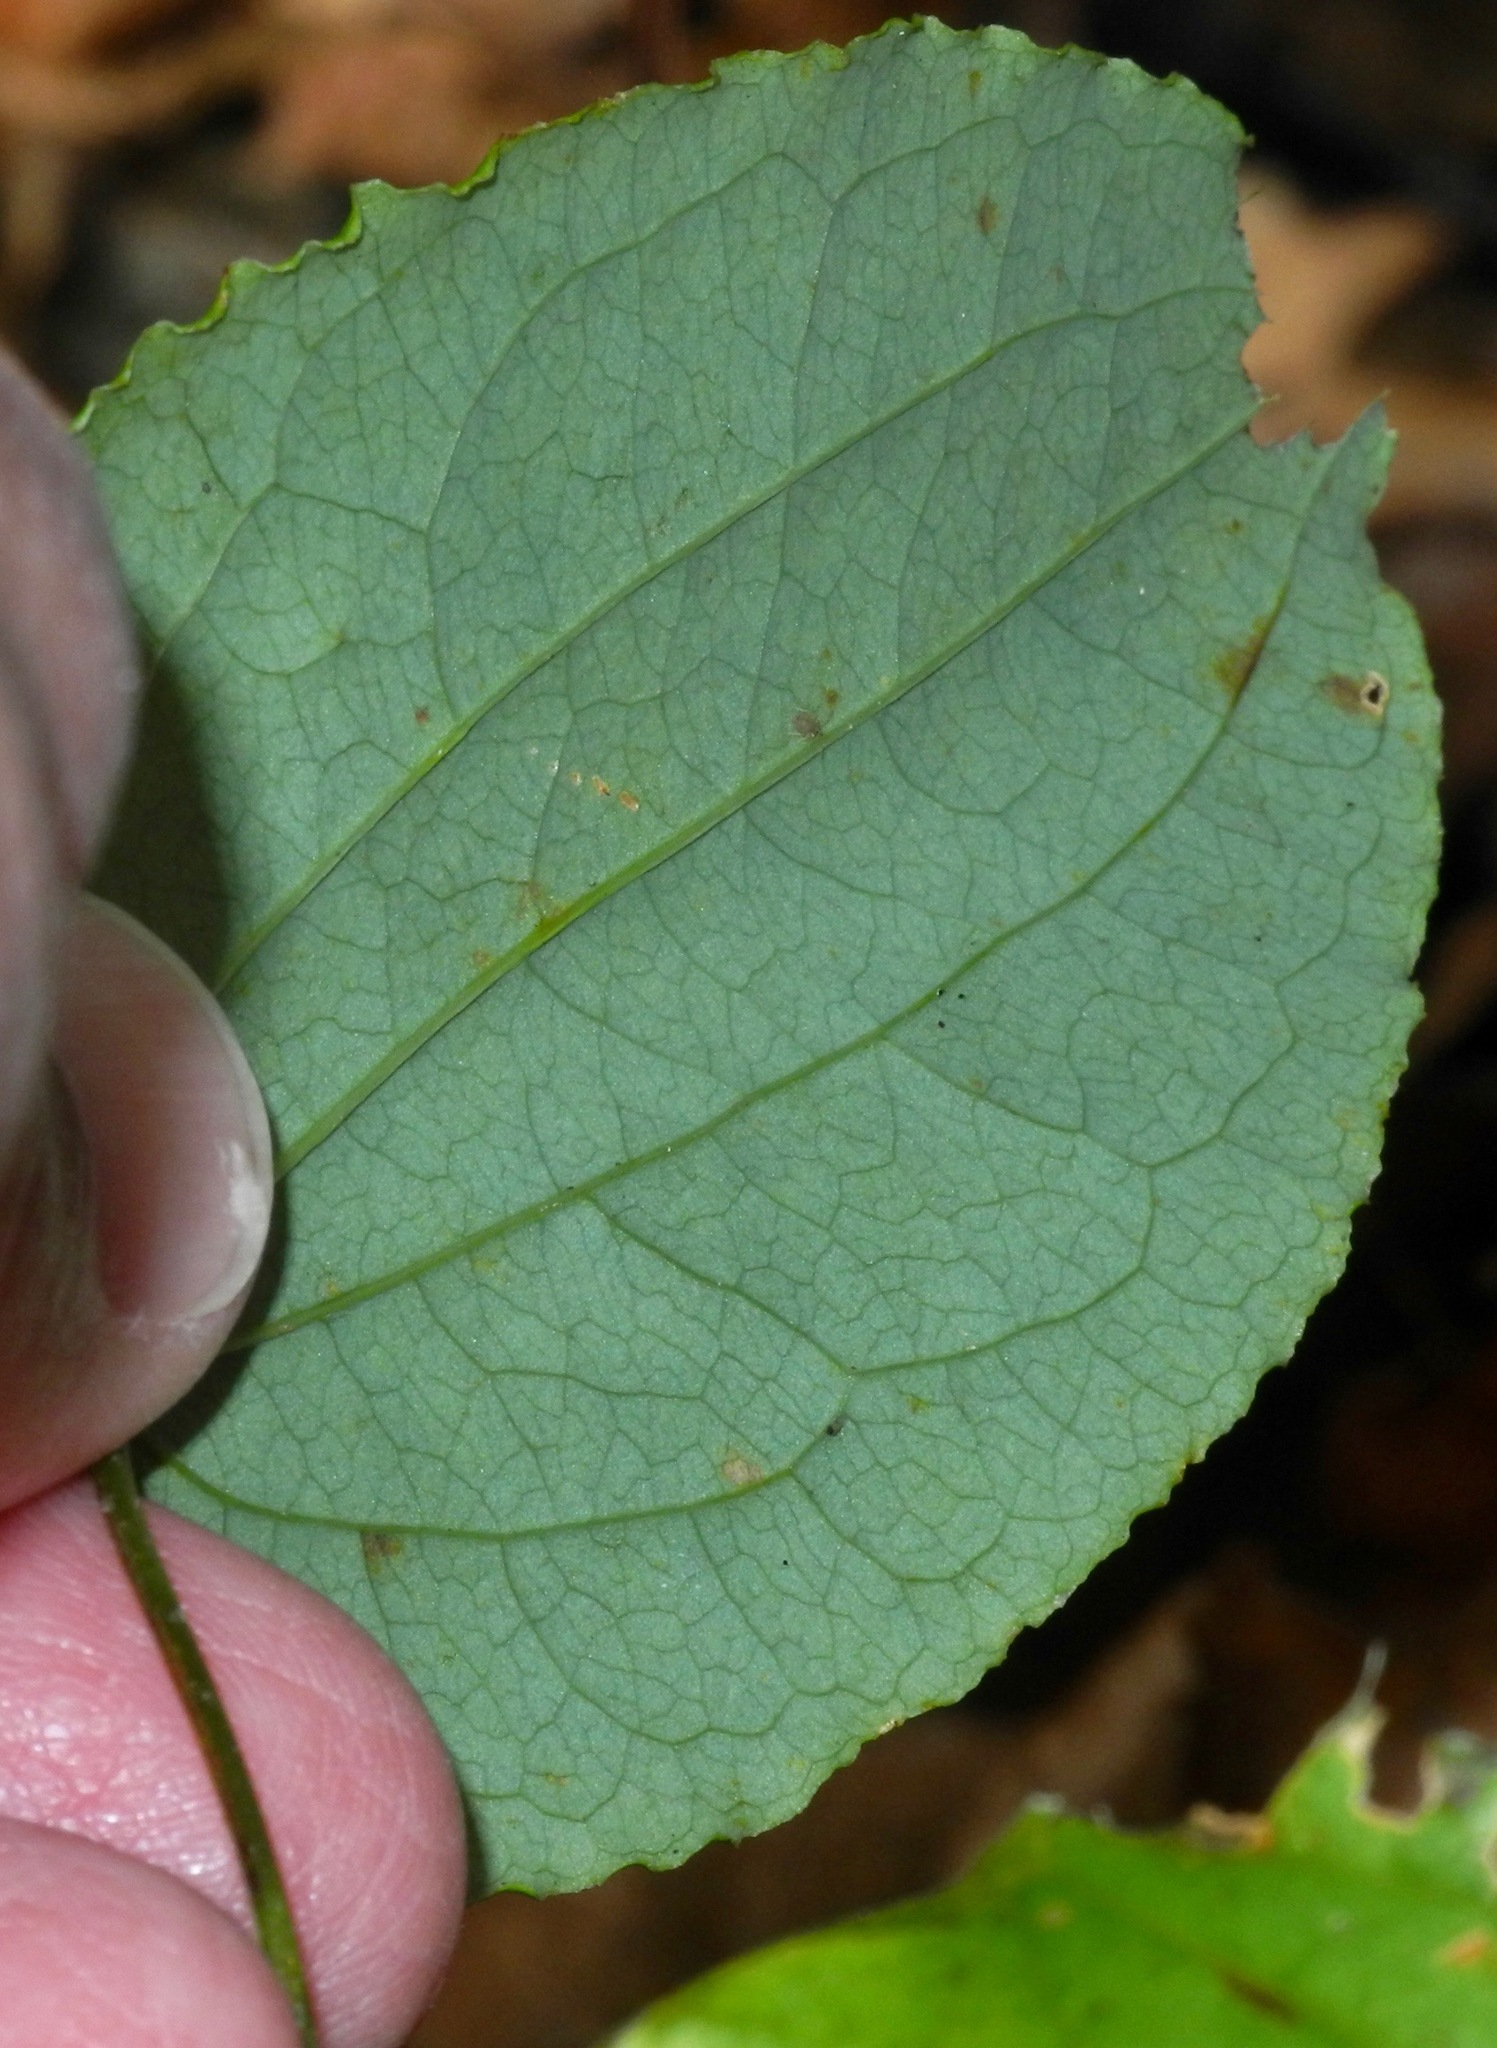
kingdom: Plantae
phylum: Tracheophyta
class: Liliopsida
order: Liliales
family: Smilacaceae
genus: Smilax
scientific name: Smilax biltmoreana
